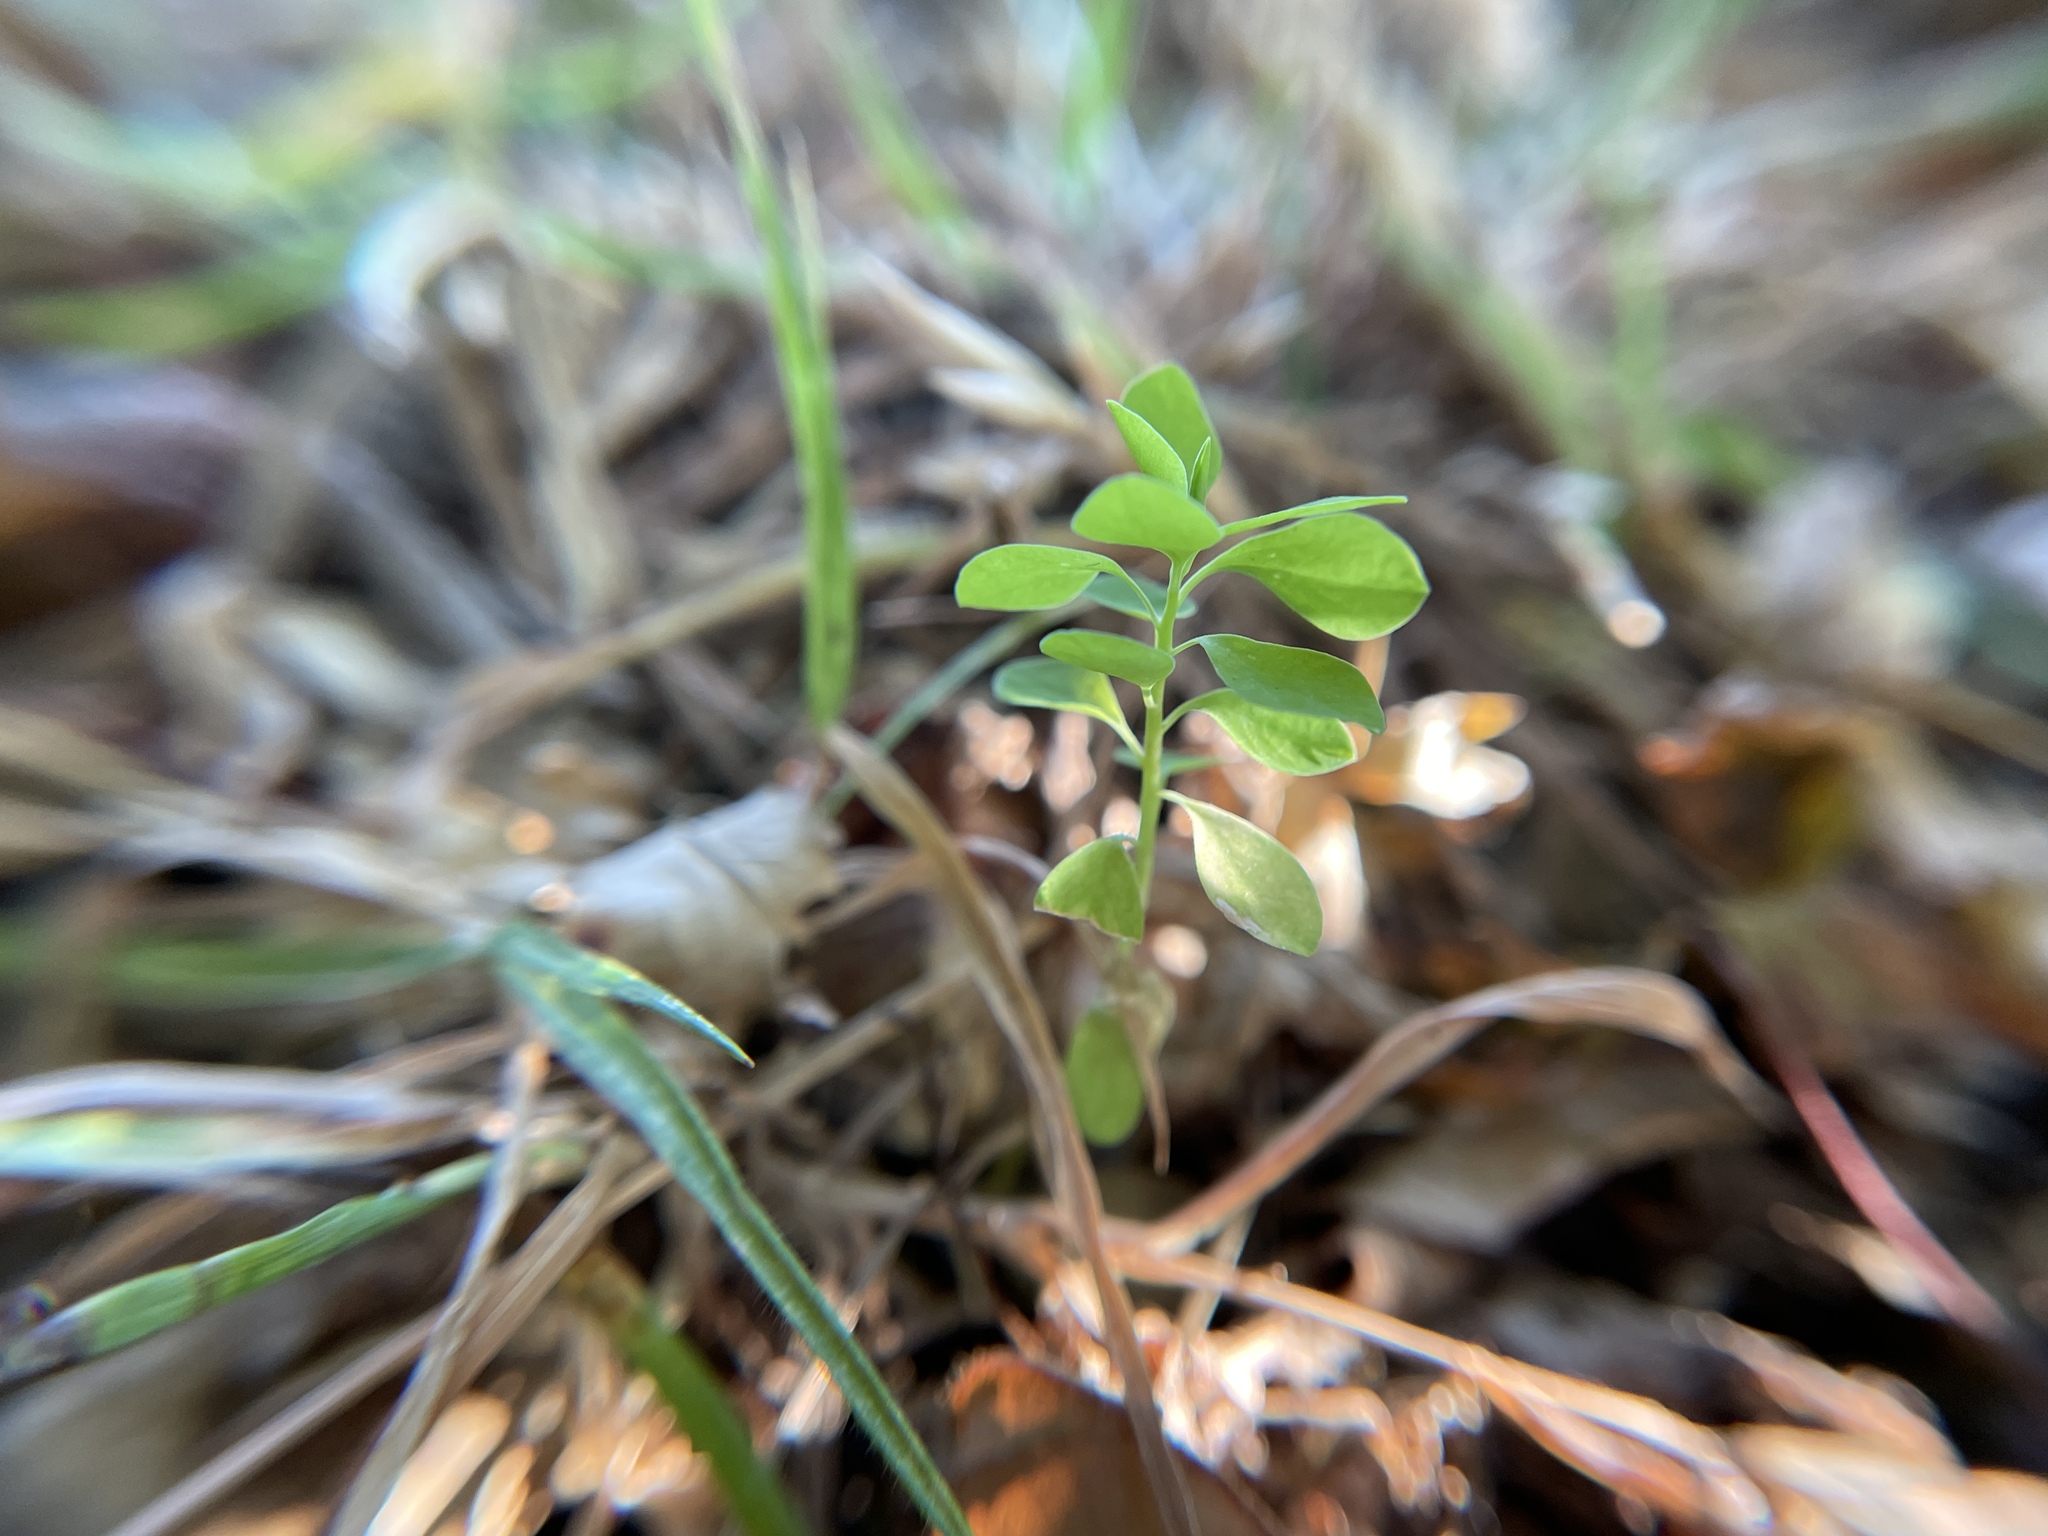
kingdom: Plantae
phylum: Tracheophyta
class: Magnoliopsida
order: Malpighiales
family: Euphorbiaceae
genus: Euphorbia
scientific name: Euphorbia peplus
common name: Petty spurge
